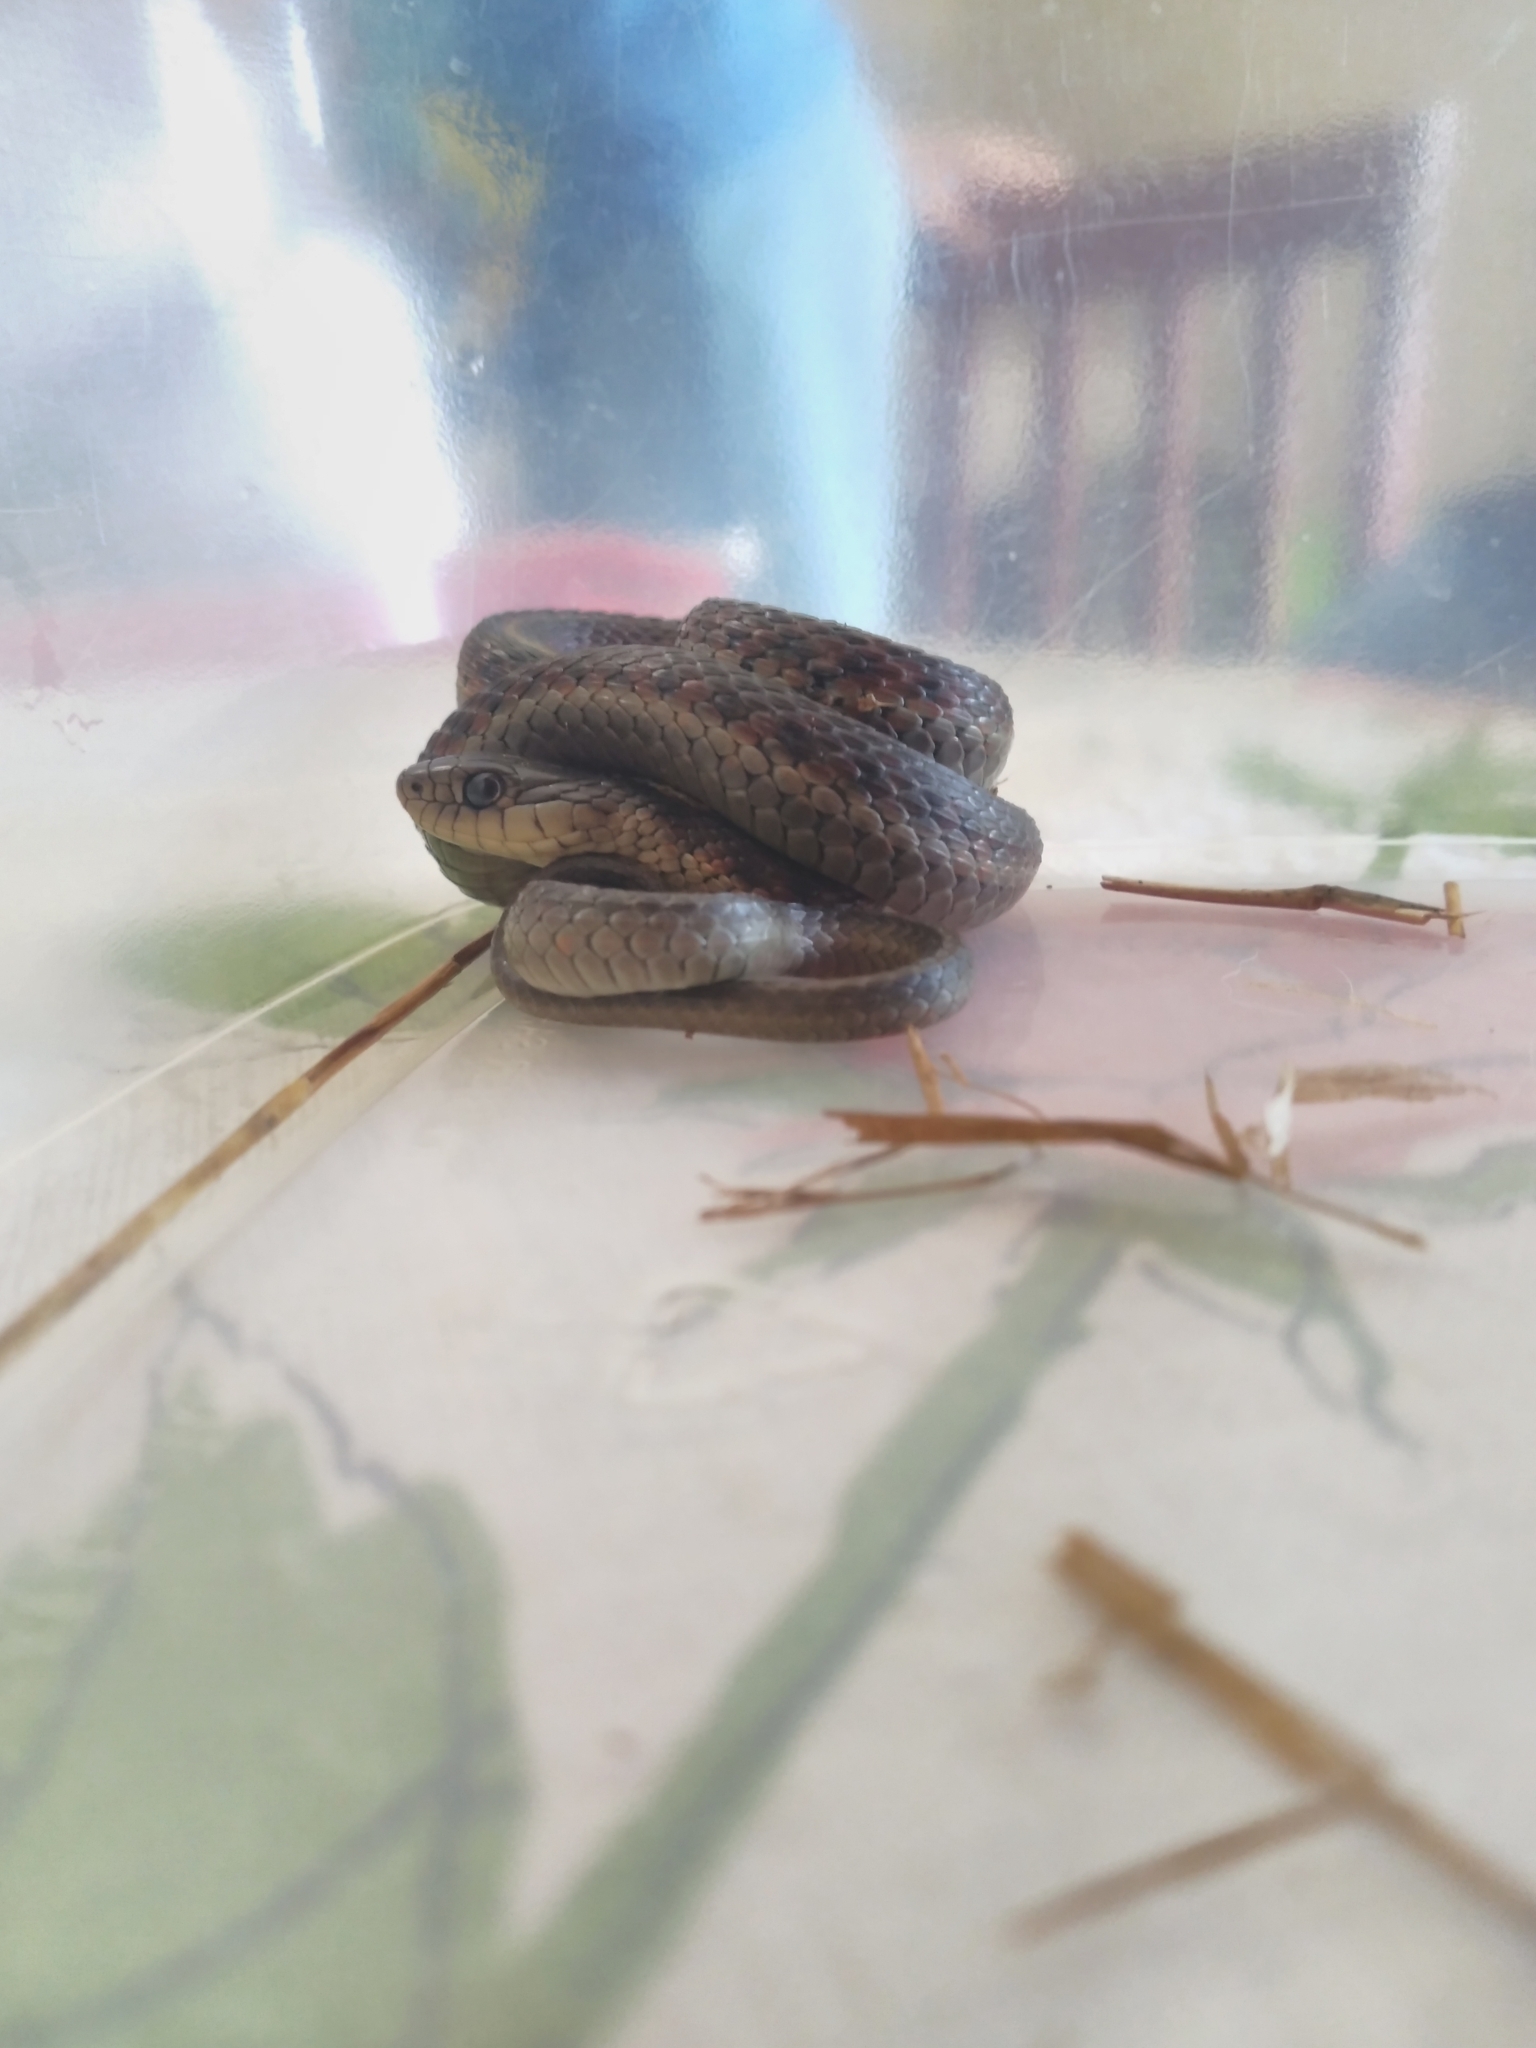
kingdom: Animalia
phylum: Chordata
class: Squamata
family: Colubridae
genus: Thamnophis
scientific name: Thamnophis elegans
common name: Western terrestrial garter snake
